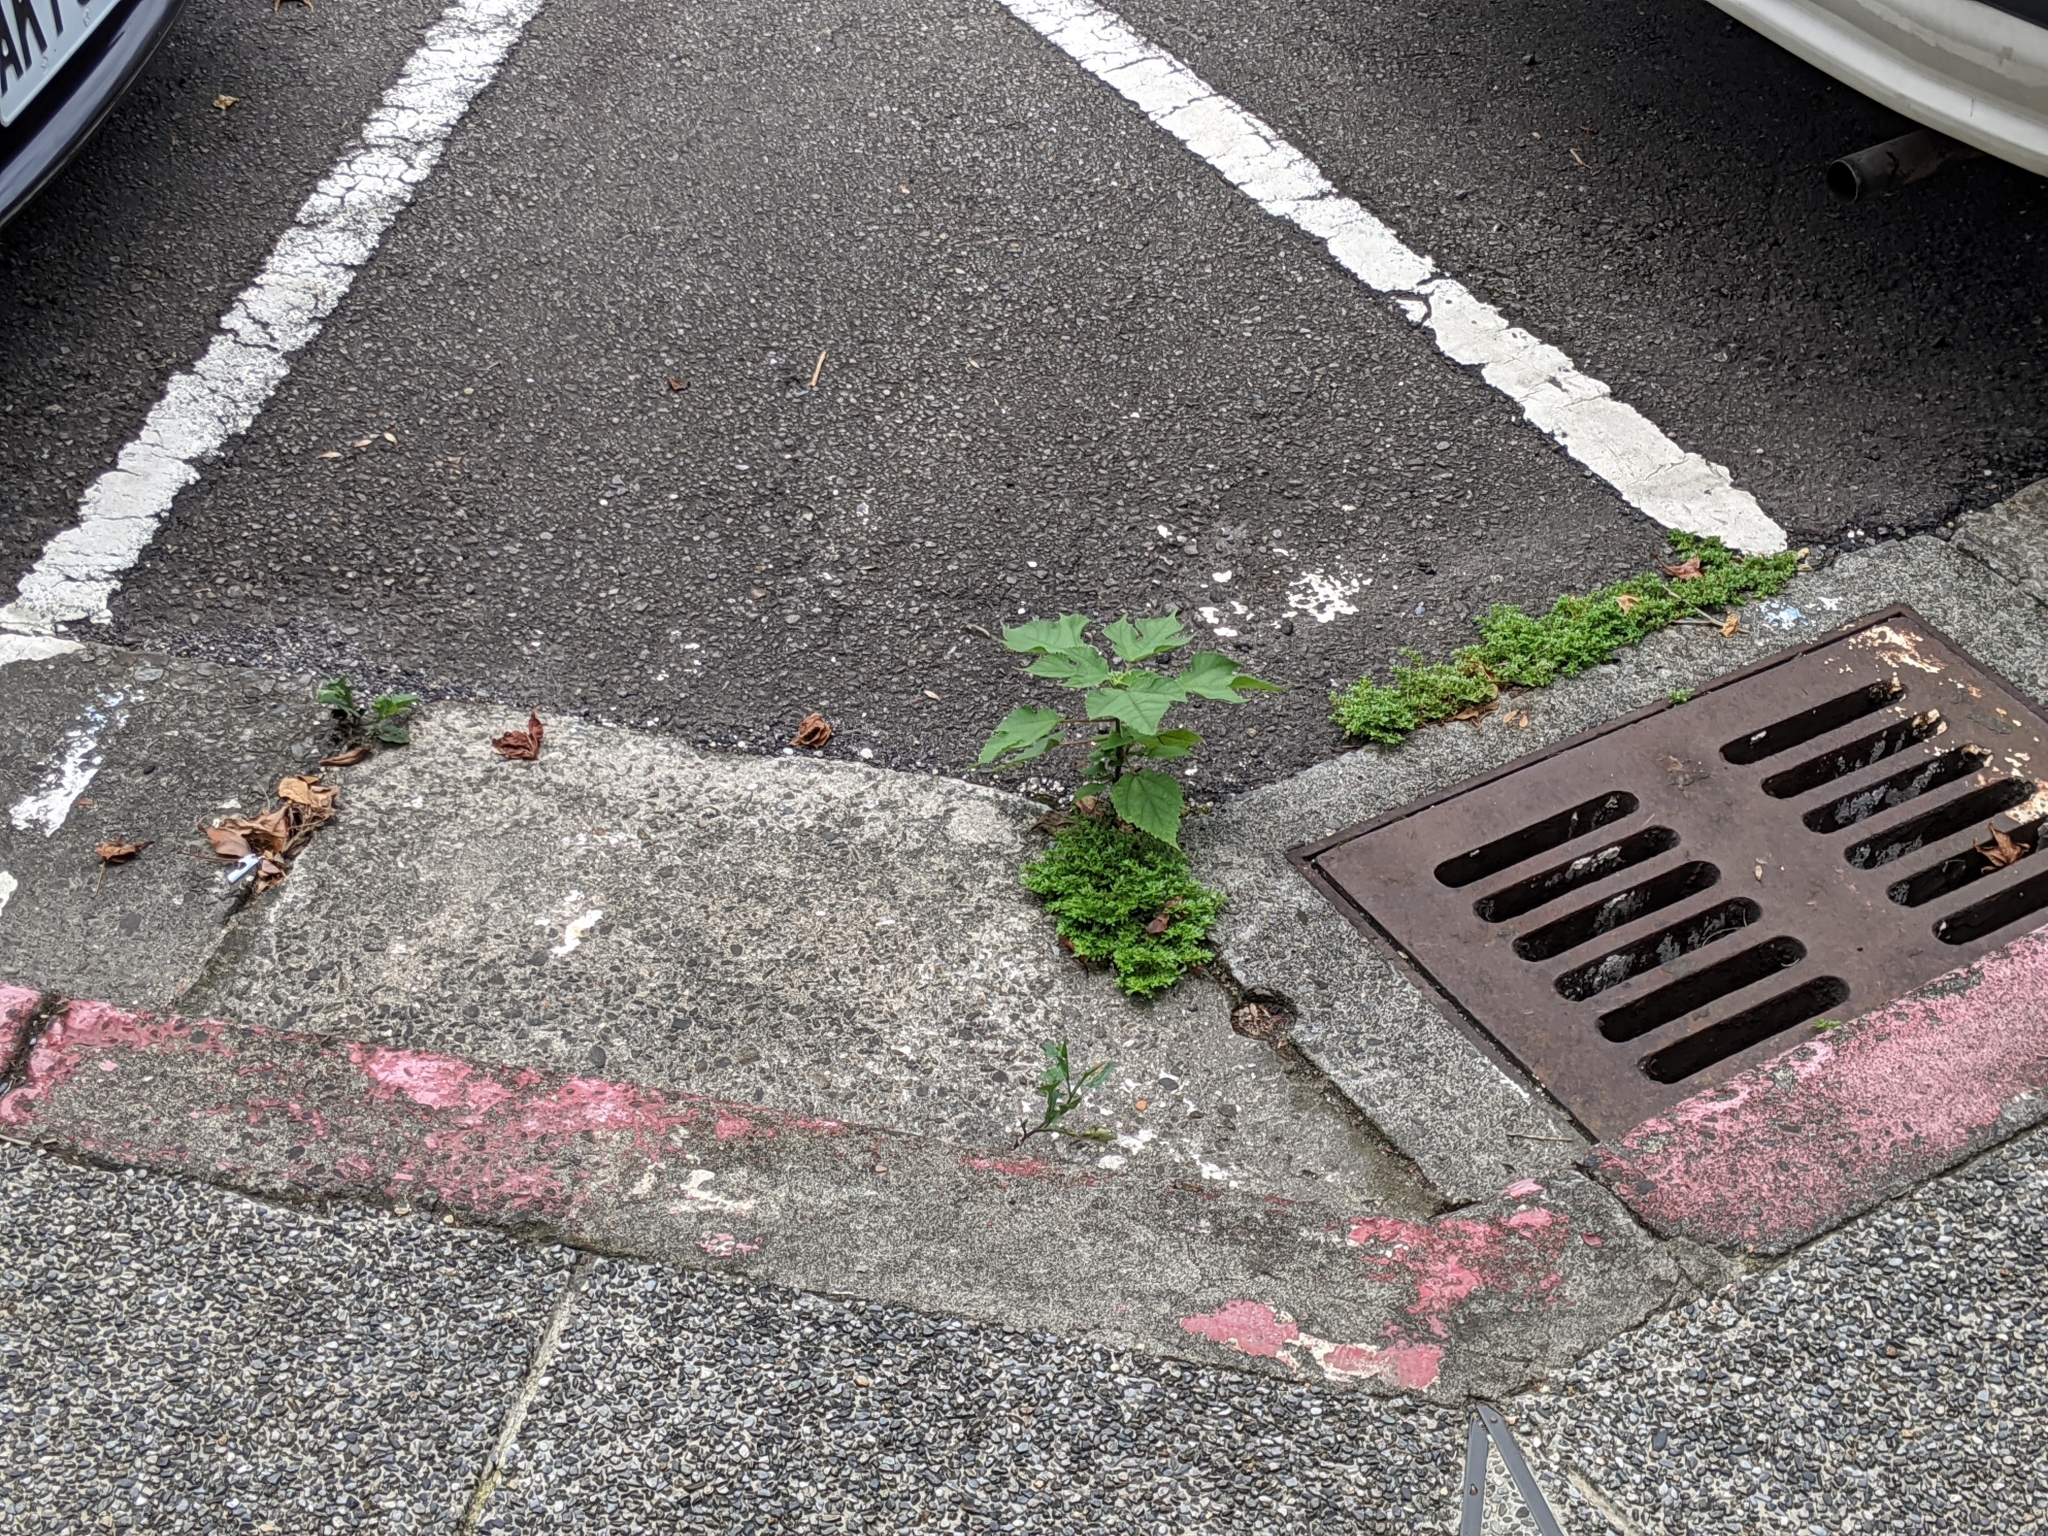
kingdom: Plantae
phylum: Tracheophyta
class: Magnoliopsida
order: Rosales
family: Moraceae
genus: Broussonetia
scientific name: Broussonetia papyrifera
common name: Paper mulberry
